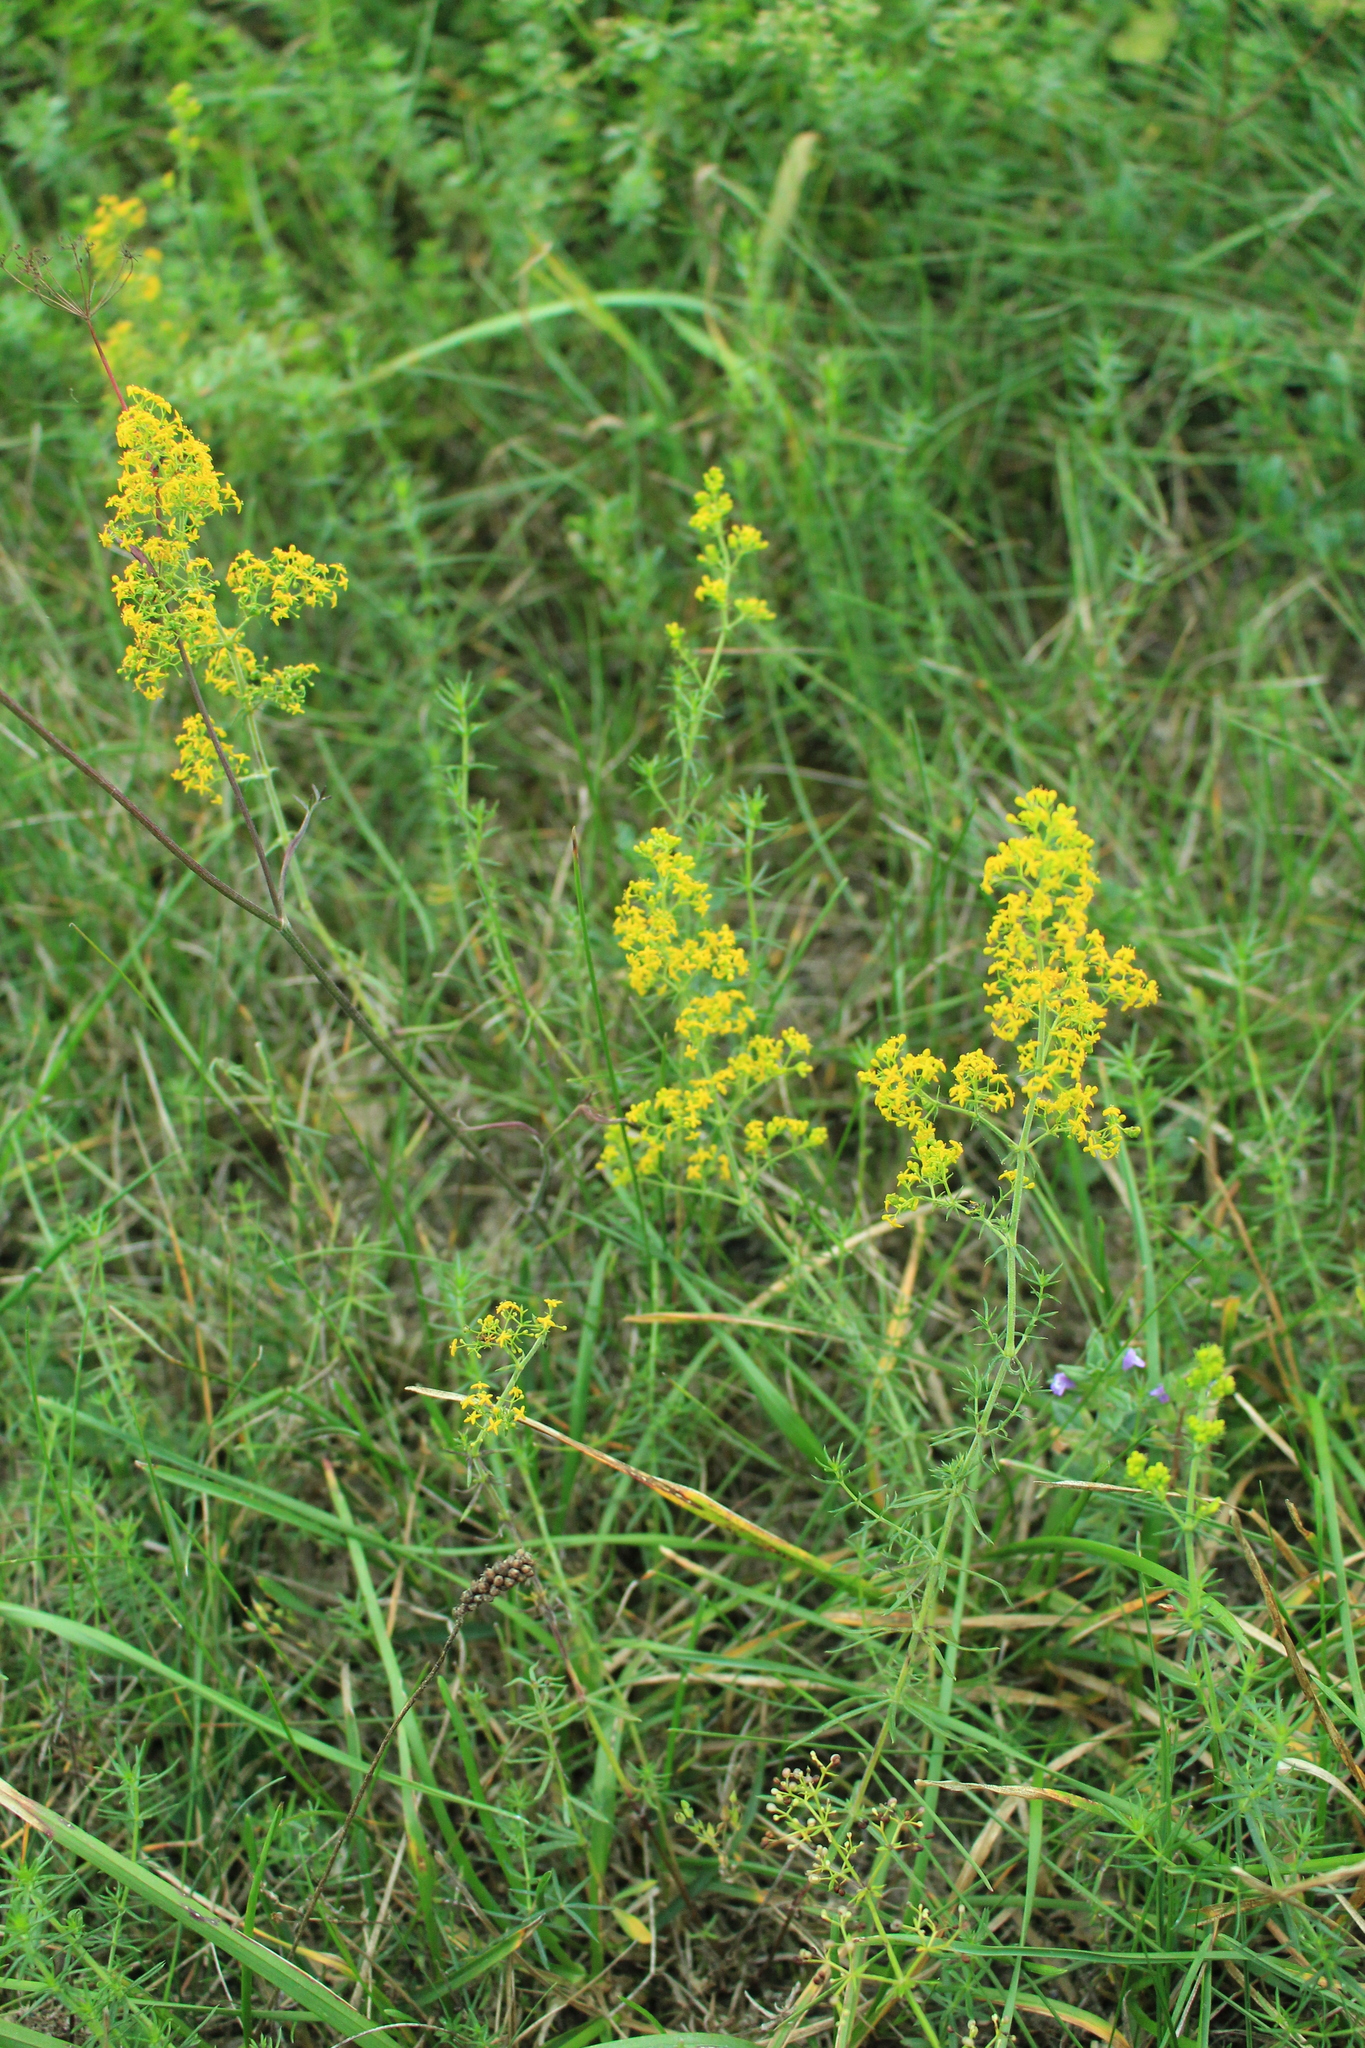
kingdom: Plantae
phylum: Tracheophyta
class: Magnoliopsida
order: Gentianales
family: Rubiaceae
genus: Galium
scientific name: Galium verum
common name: Lady's bedstraw
